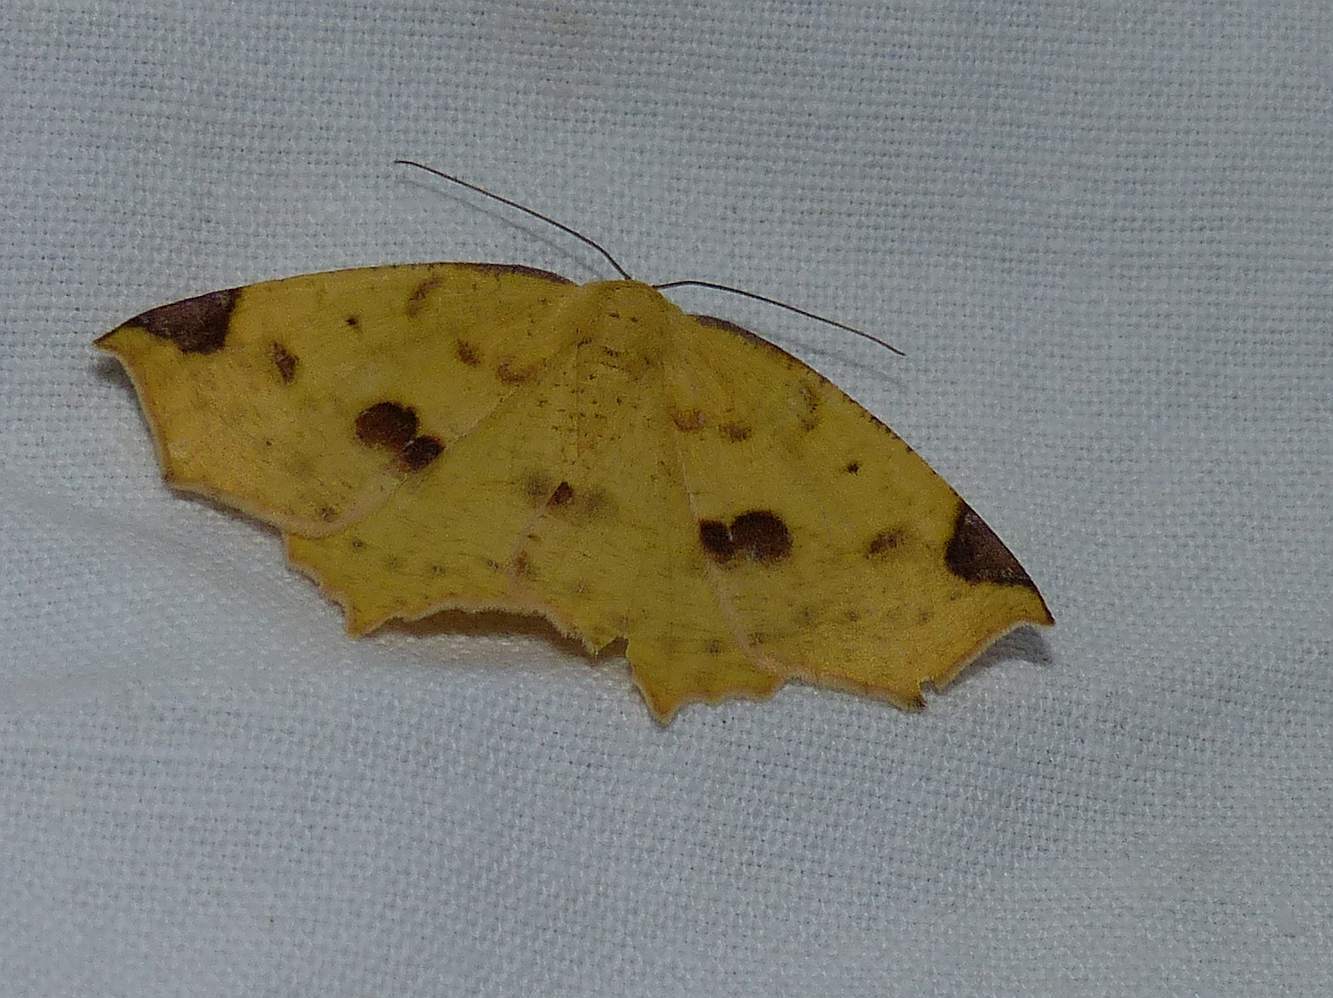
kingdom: Animalia
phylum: Arthropoda
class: Insecta
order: Lepidoptera
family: Geometridae
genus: Antepione
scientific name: Antepione thisoaria
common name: Variable antipione
